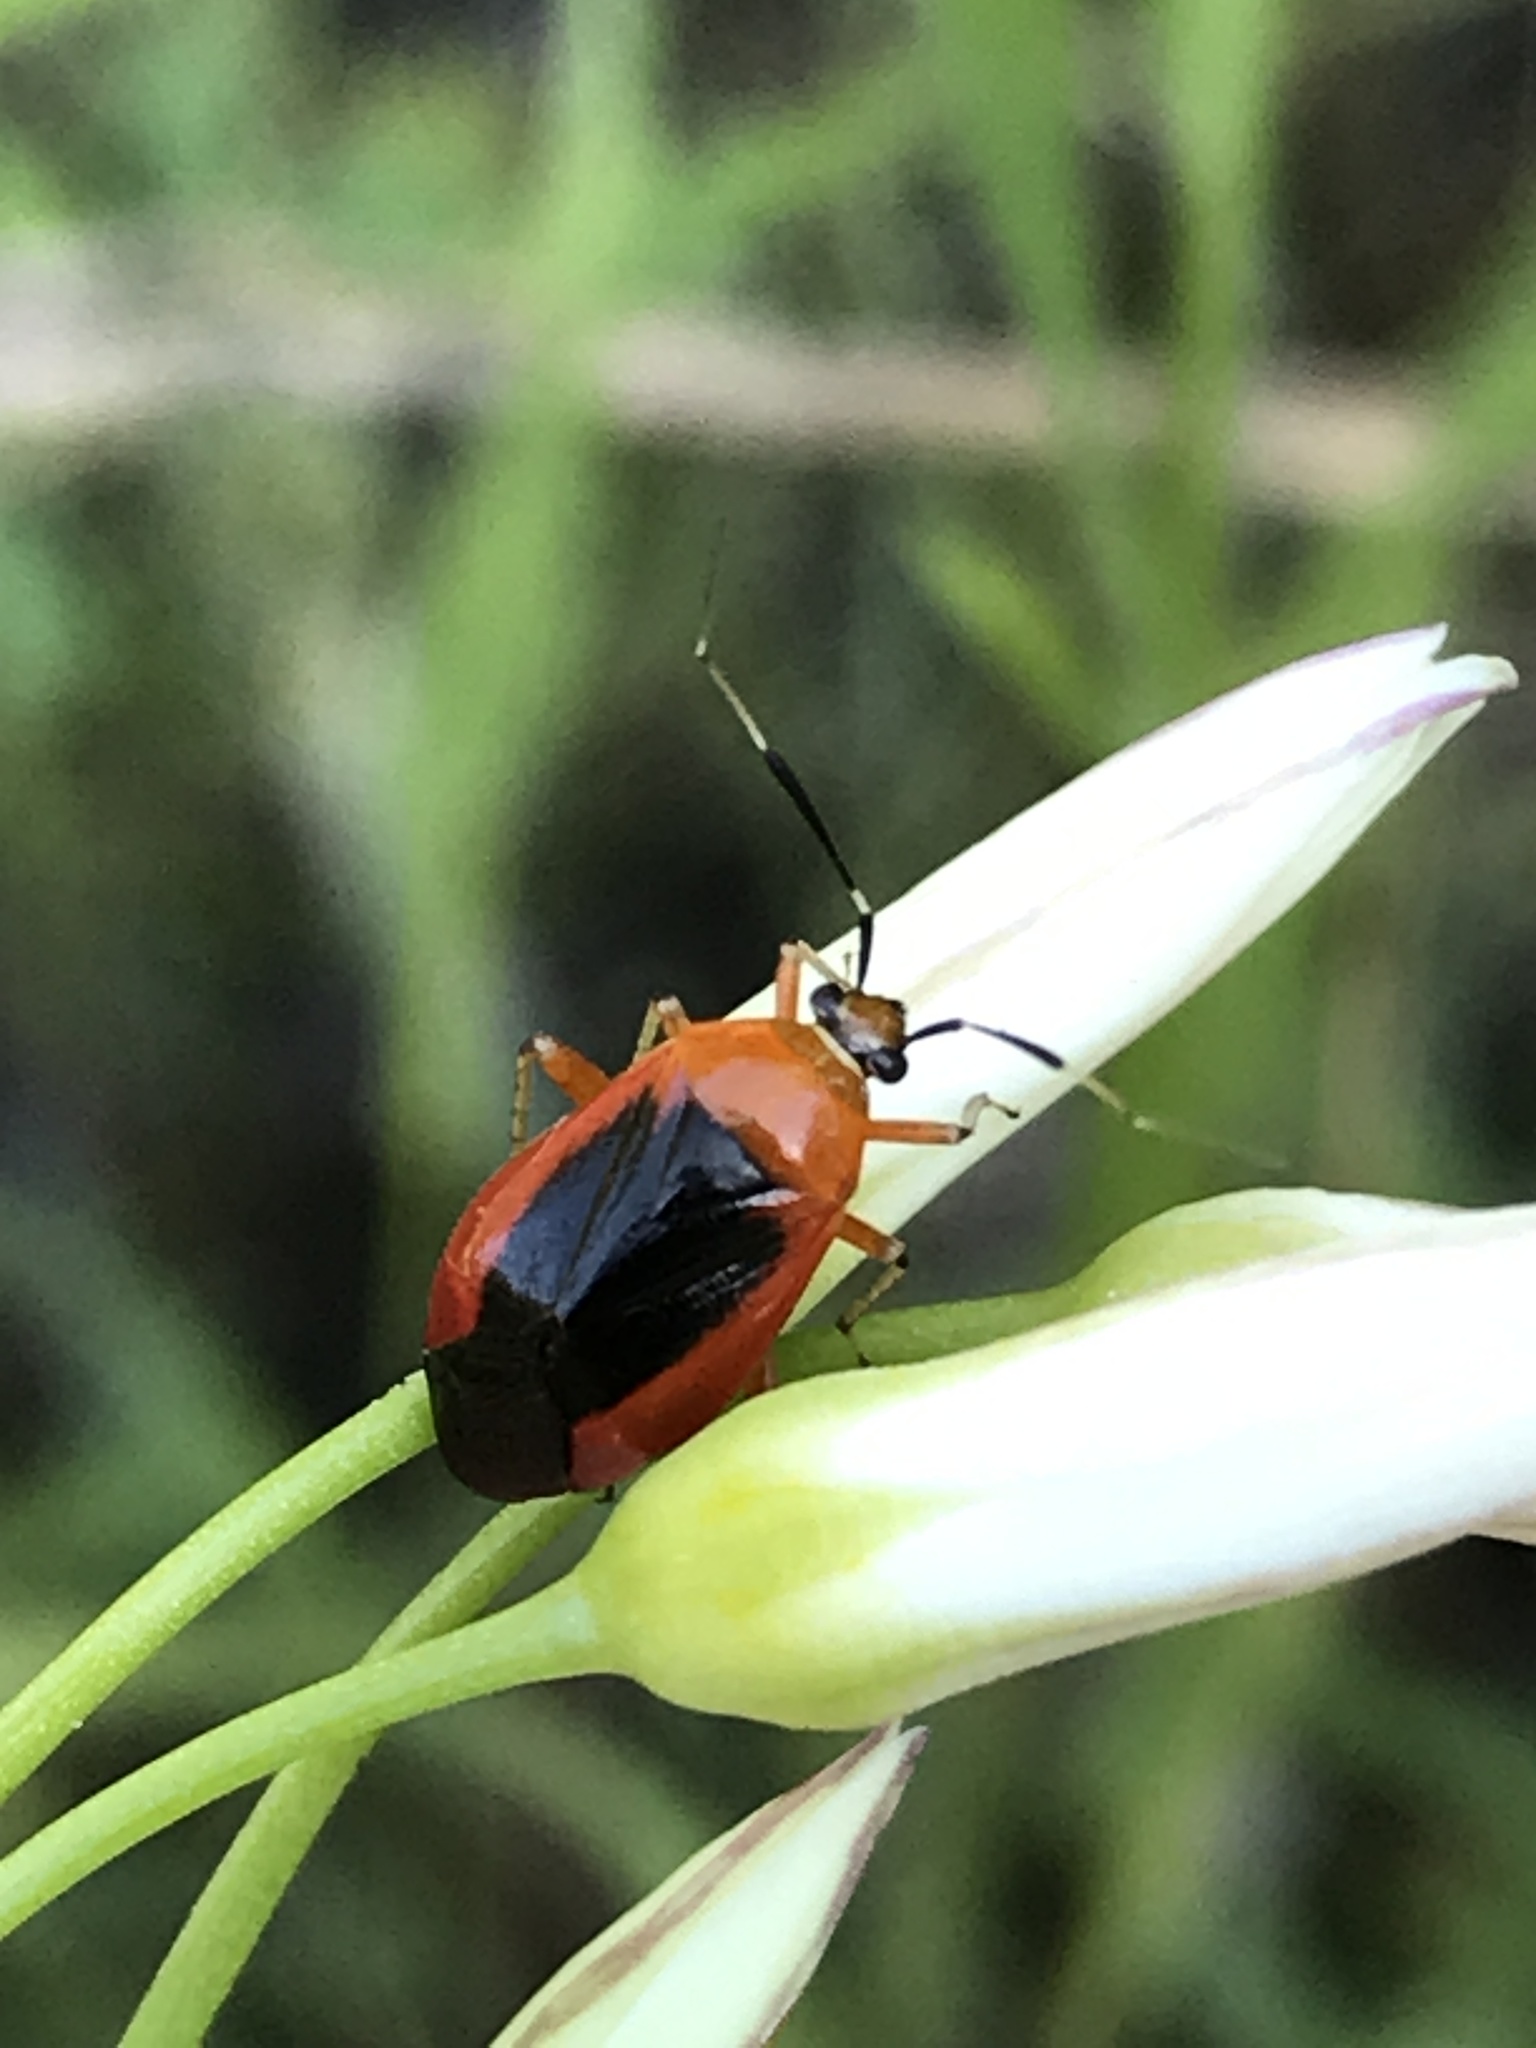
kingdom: Animalia
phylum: Arthropoda
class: Insecta
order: Hemiptera
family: Miridae
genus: Metriorrhynchomiris
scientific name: Metriorrhynchomiris dislocatus
